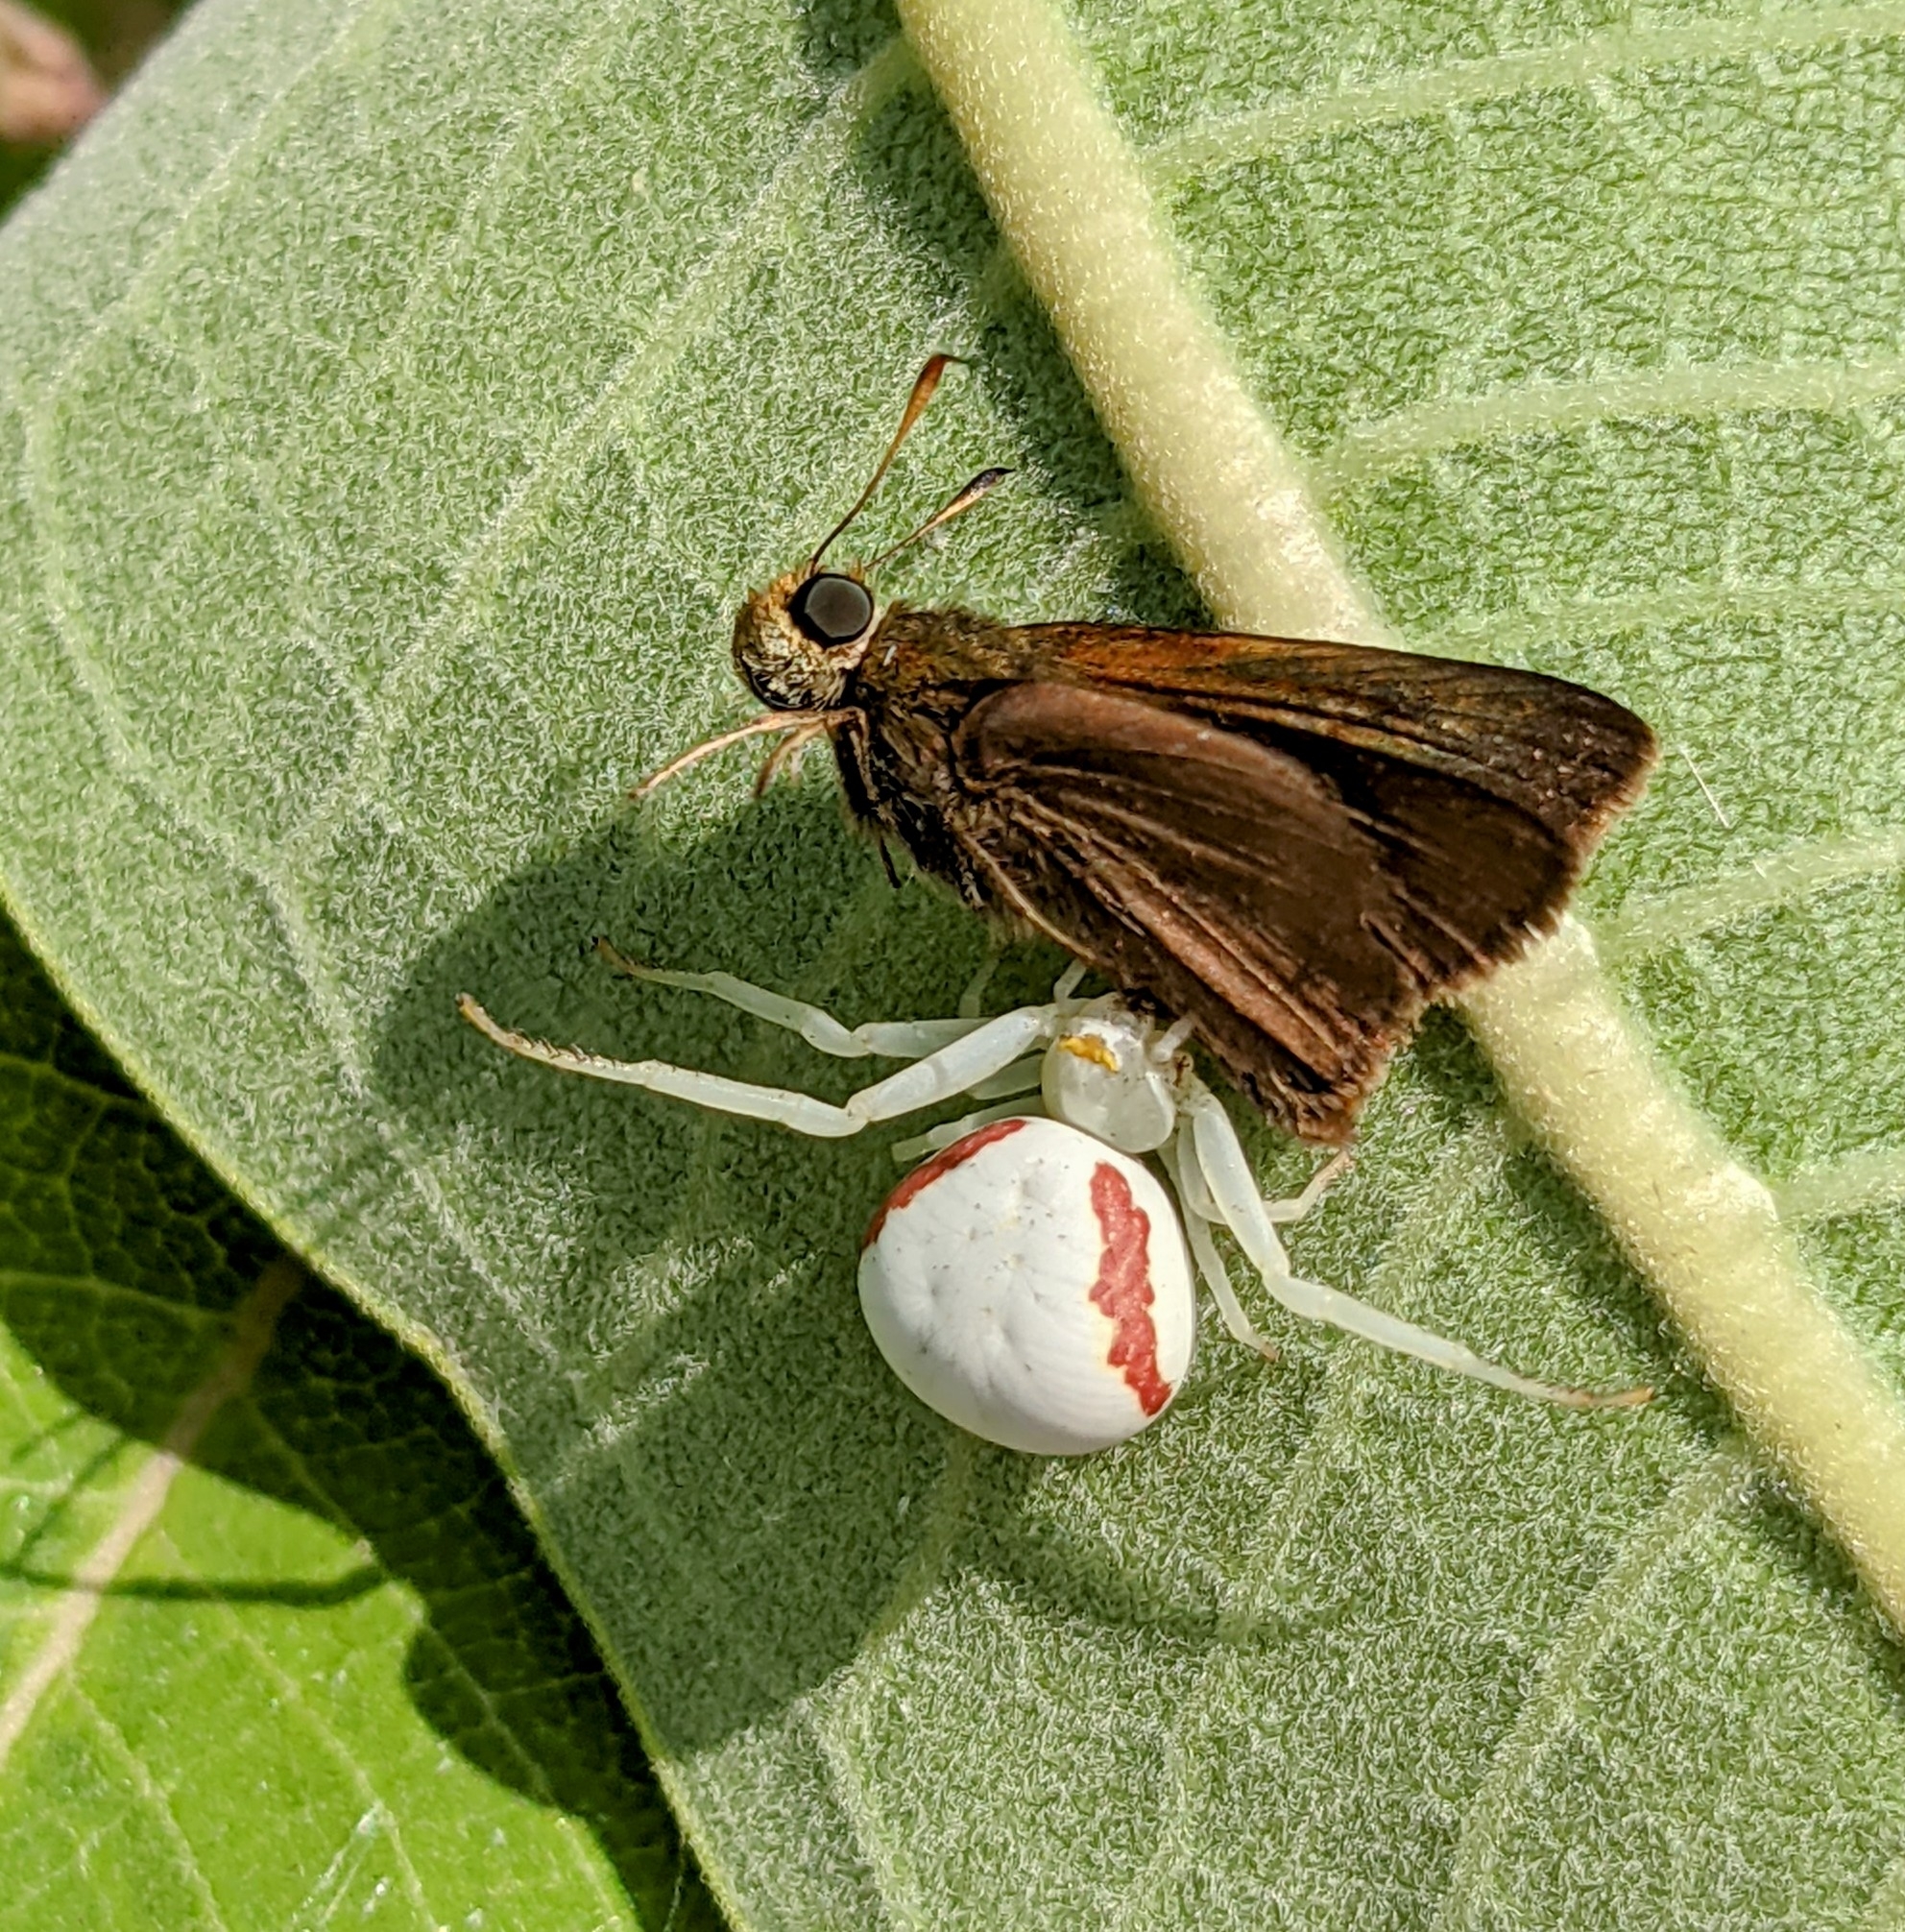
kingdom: Animalia
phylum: Arthropoda
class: Arachnida
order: Araneae
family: Thomisidae
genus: Misumena
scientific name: Misumena vatia
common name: Goldenrod crab spider
